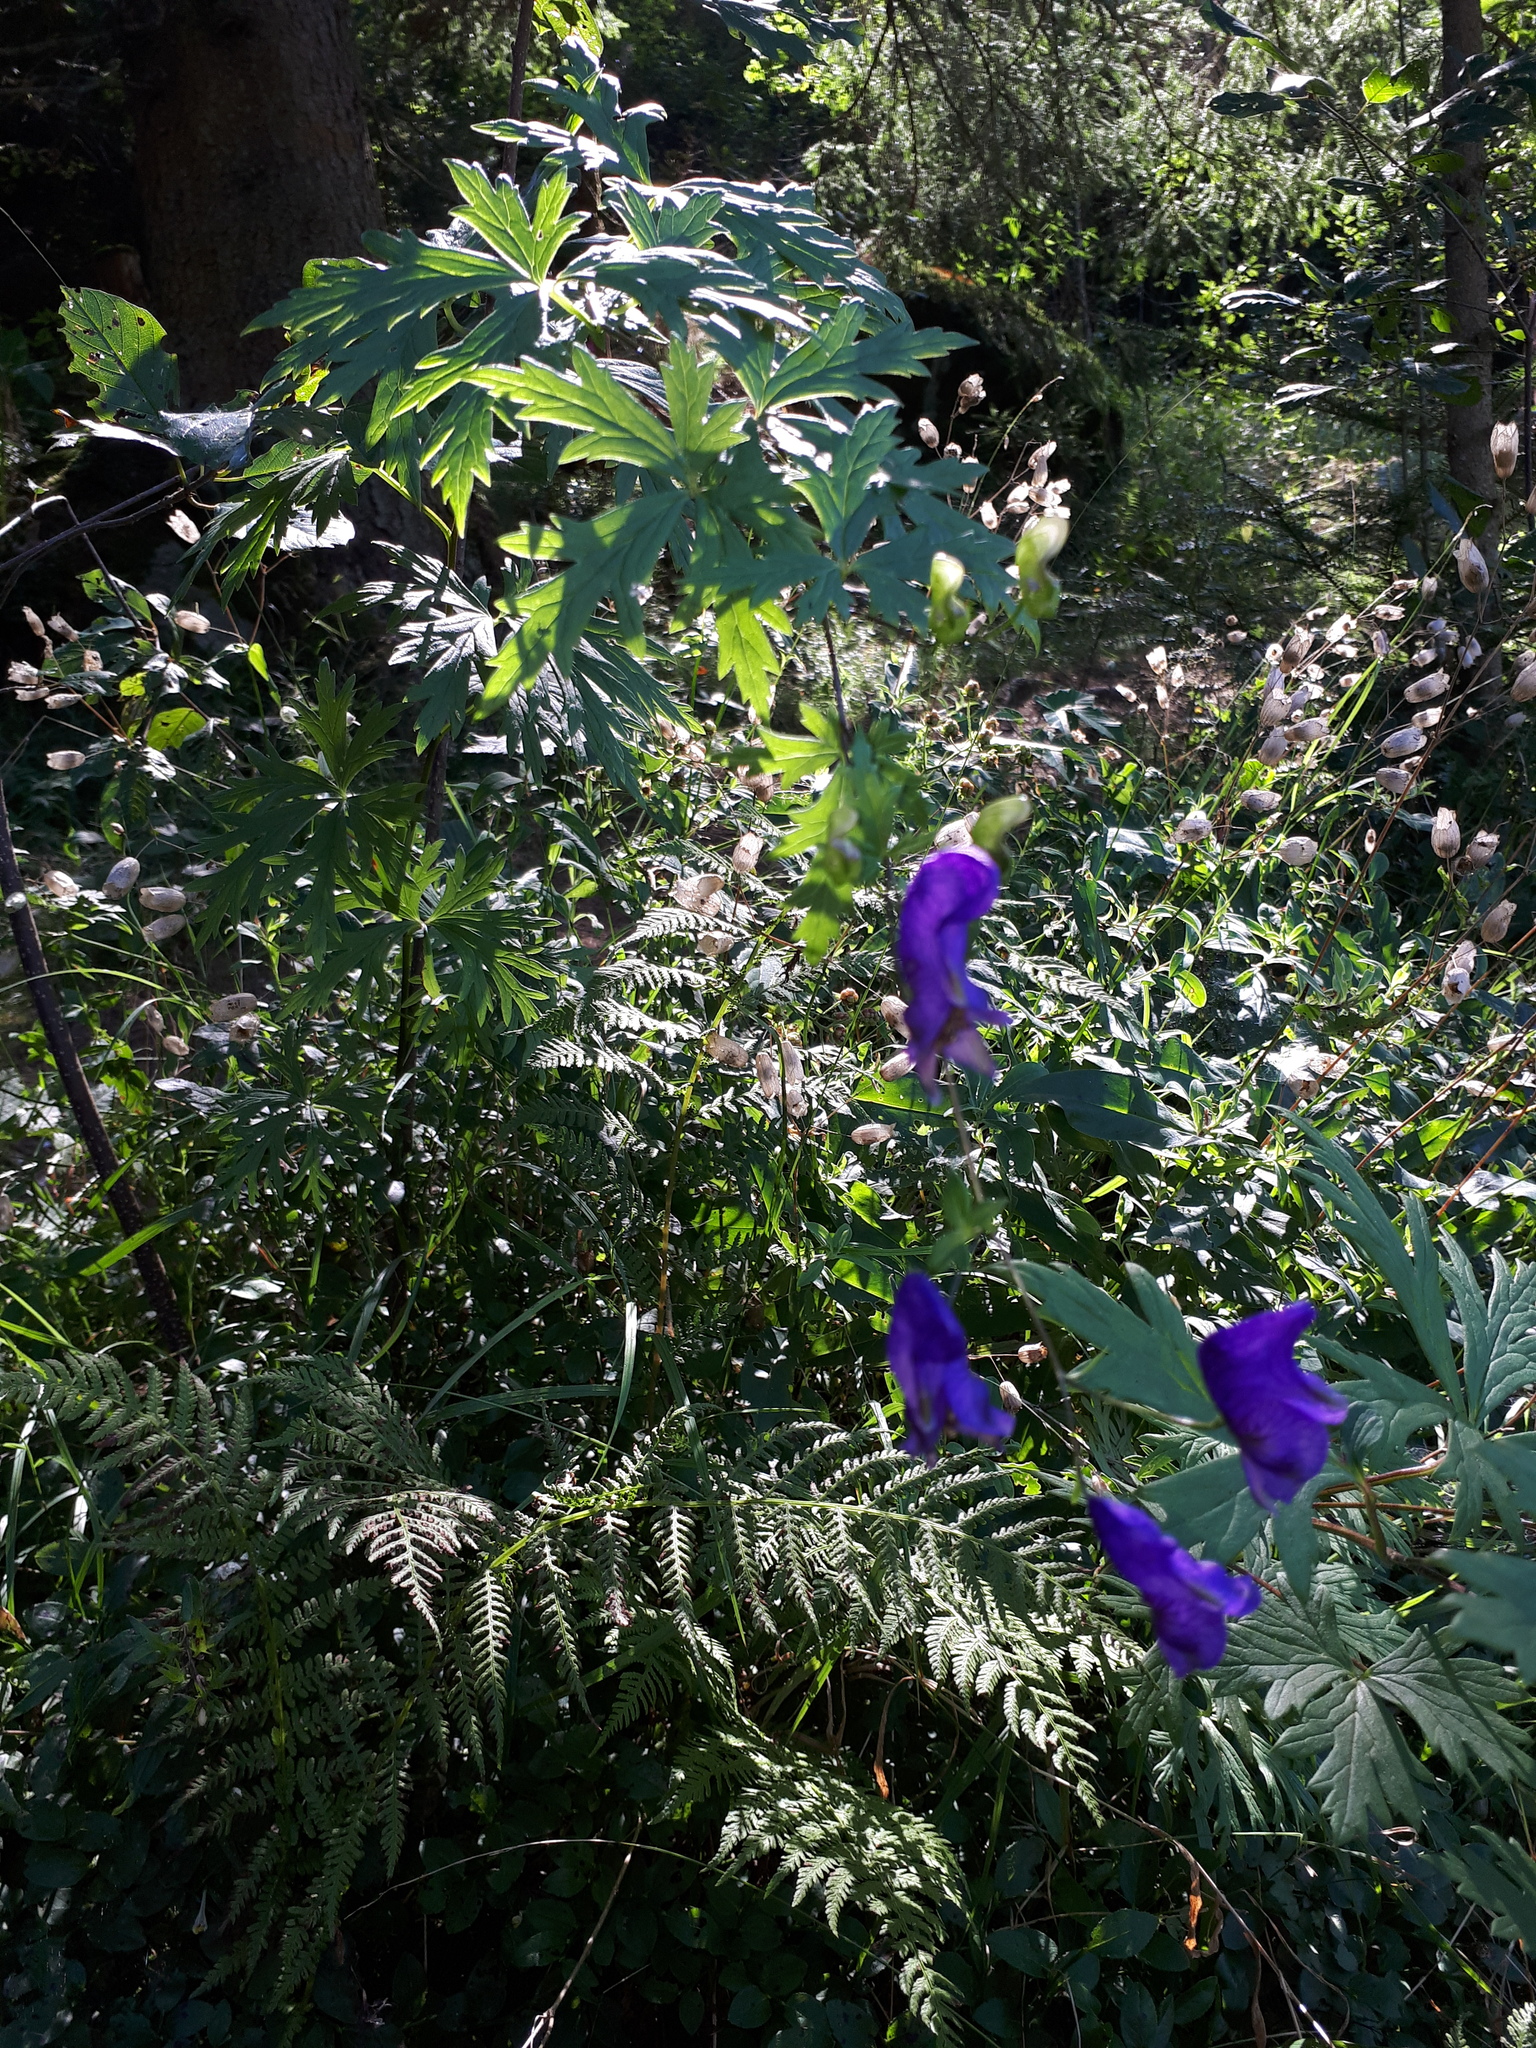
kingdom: Plantae
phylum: Tracheophyta
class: Magnoliopsida
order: Ranunculales
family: Ranunculaceae
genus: Aconitum
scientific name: Aconitum variegatum
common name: Manchurian monkshood
